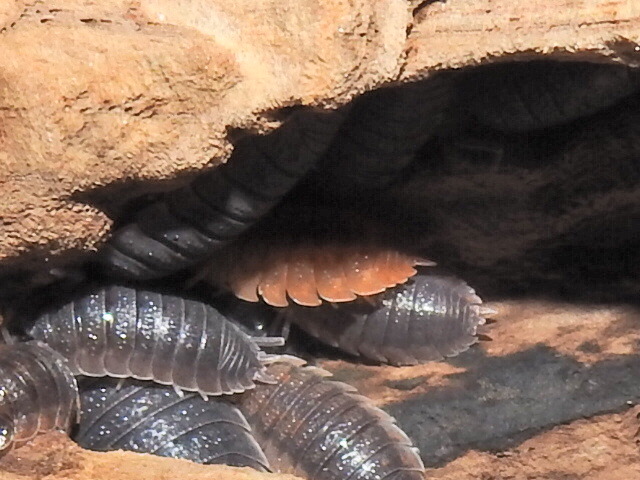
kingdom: Animalia
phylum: Arthropoda
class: Malacostraca
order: Isopoda
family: Porcellionidae
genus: Porcellio
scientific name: Porcellio scaber
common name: Common rough woodlouse
